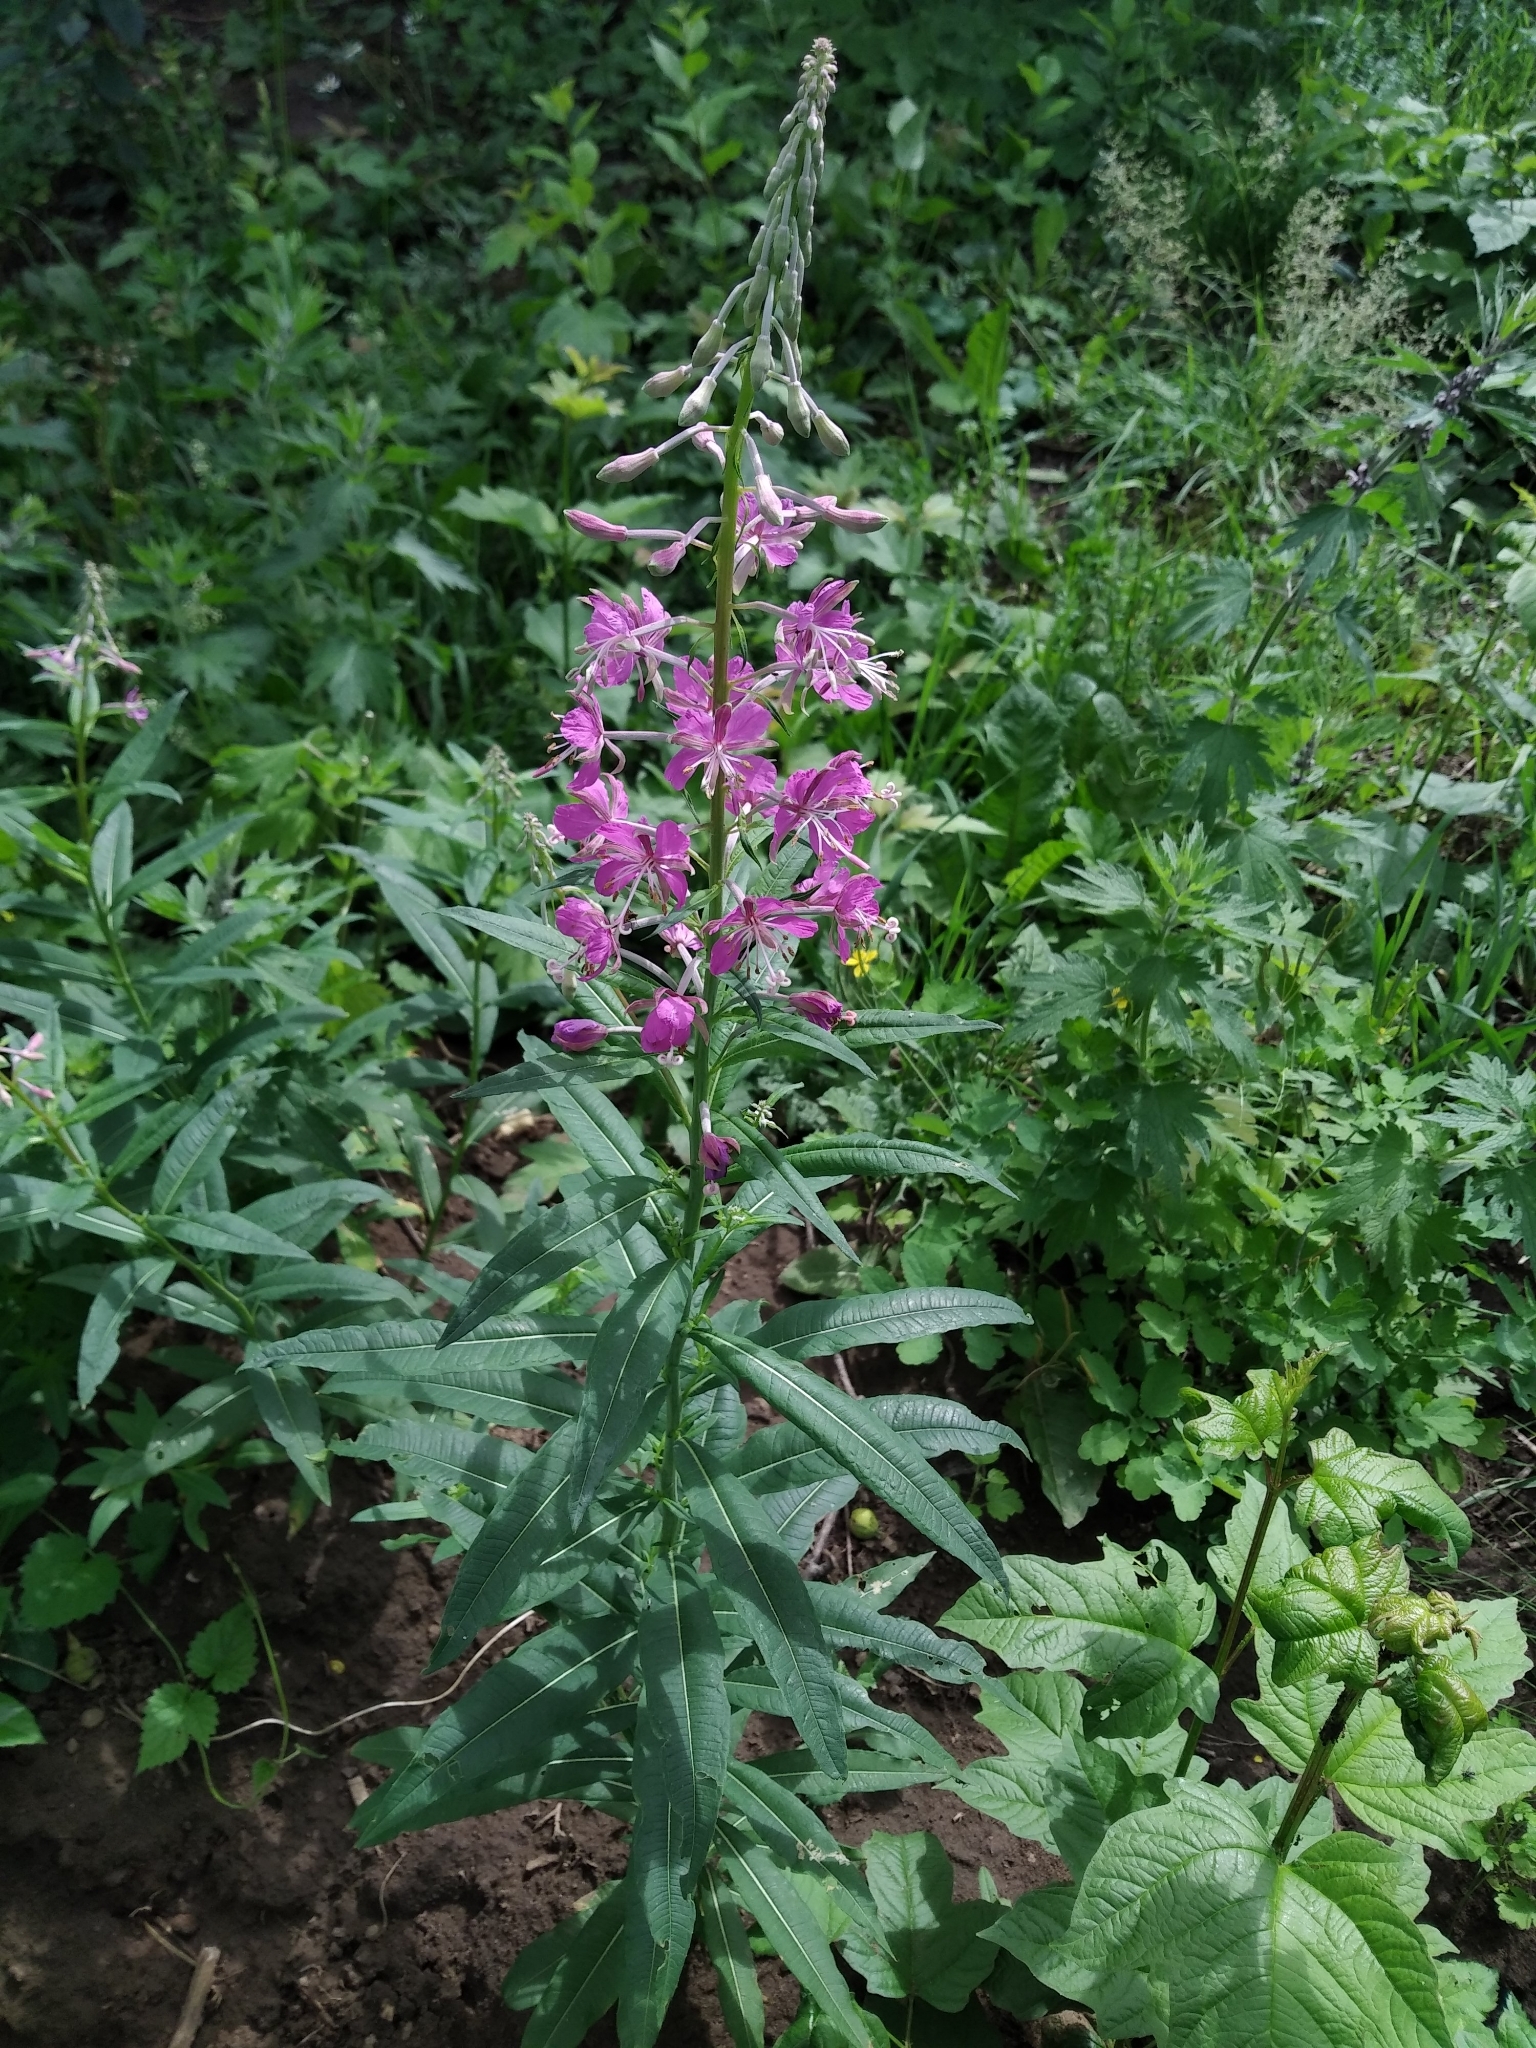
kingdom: Plantae
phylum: Tracheophyta
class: Magnoliopsida
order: Myrtales
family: Onagraceae
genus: Chamaenerion
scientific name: Chamaenerion angustifolium
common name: Fireweed
